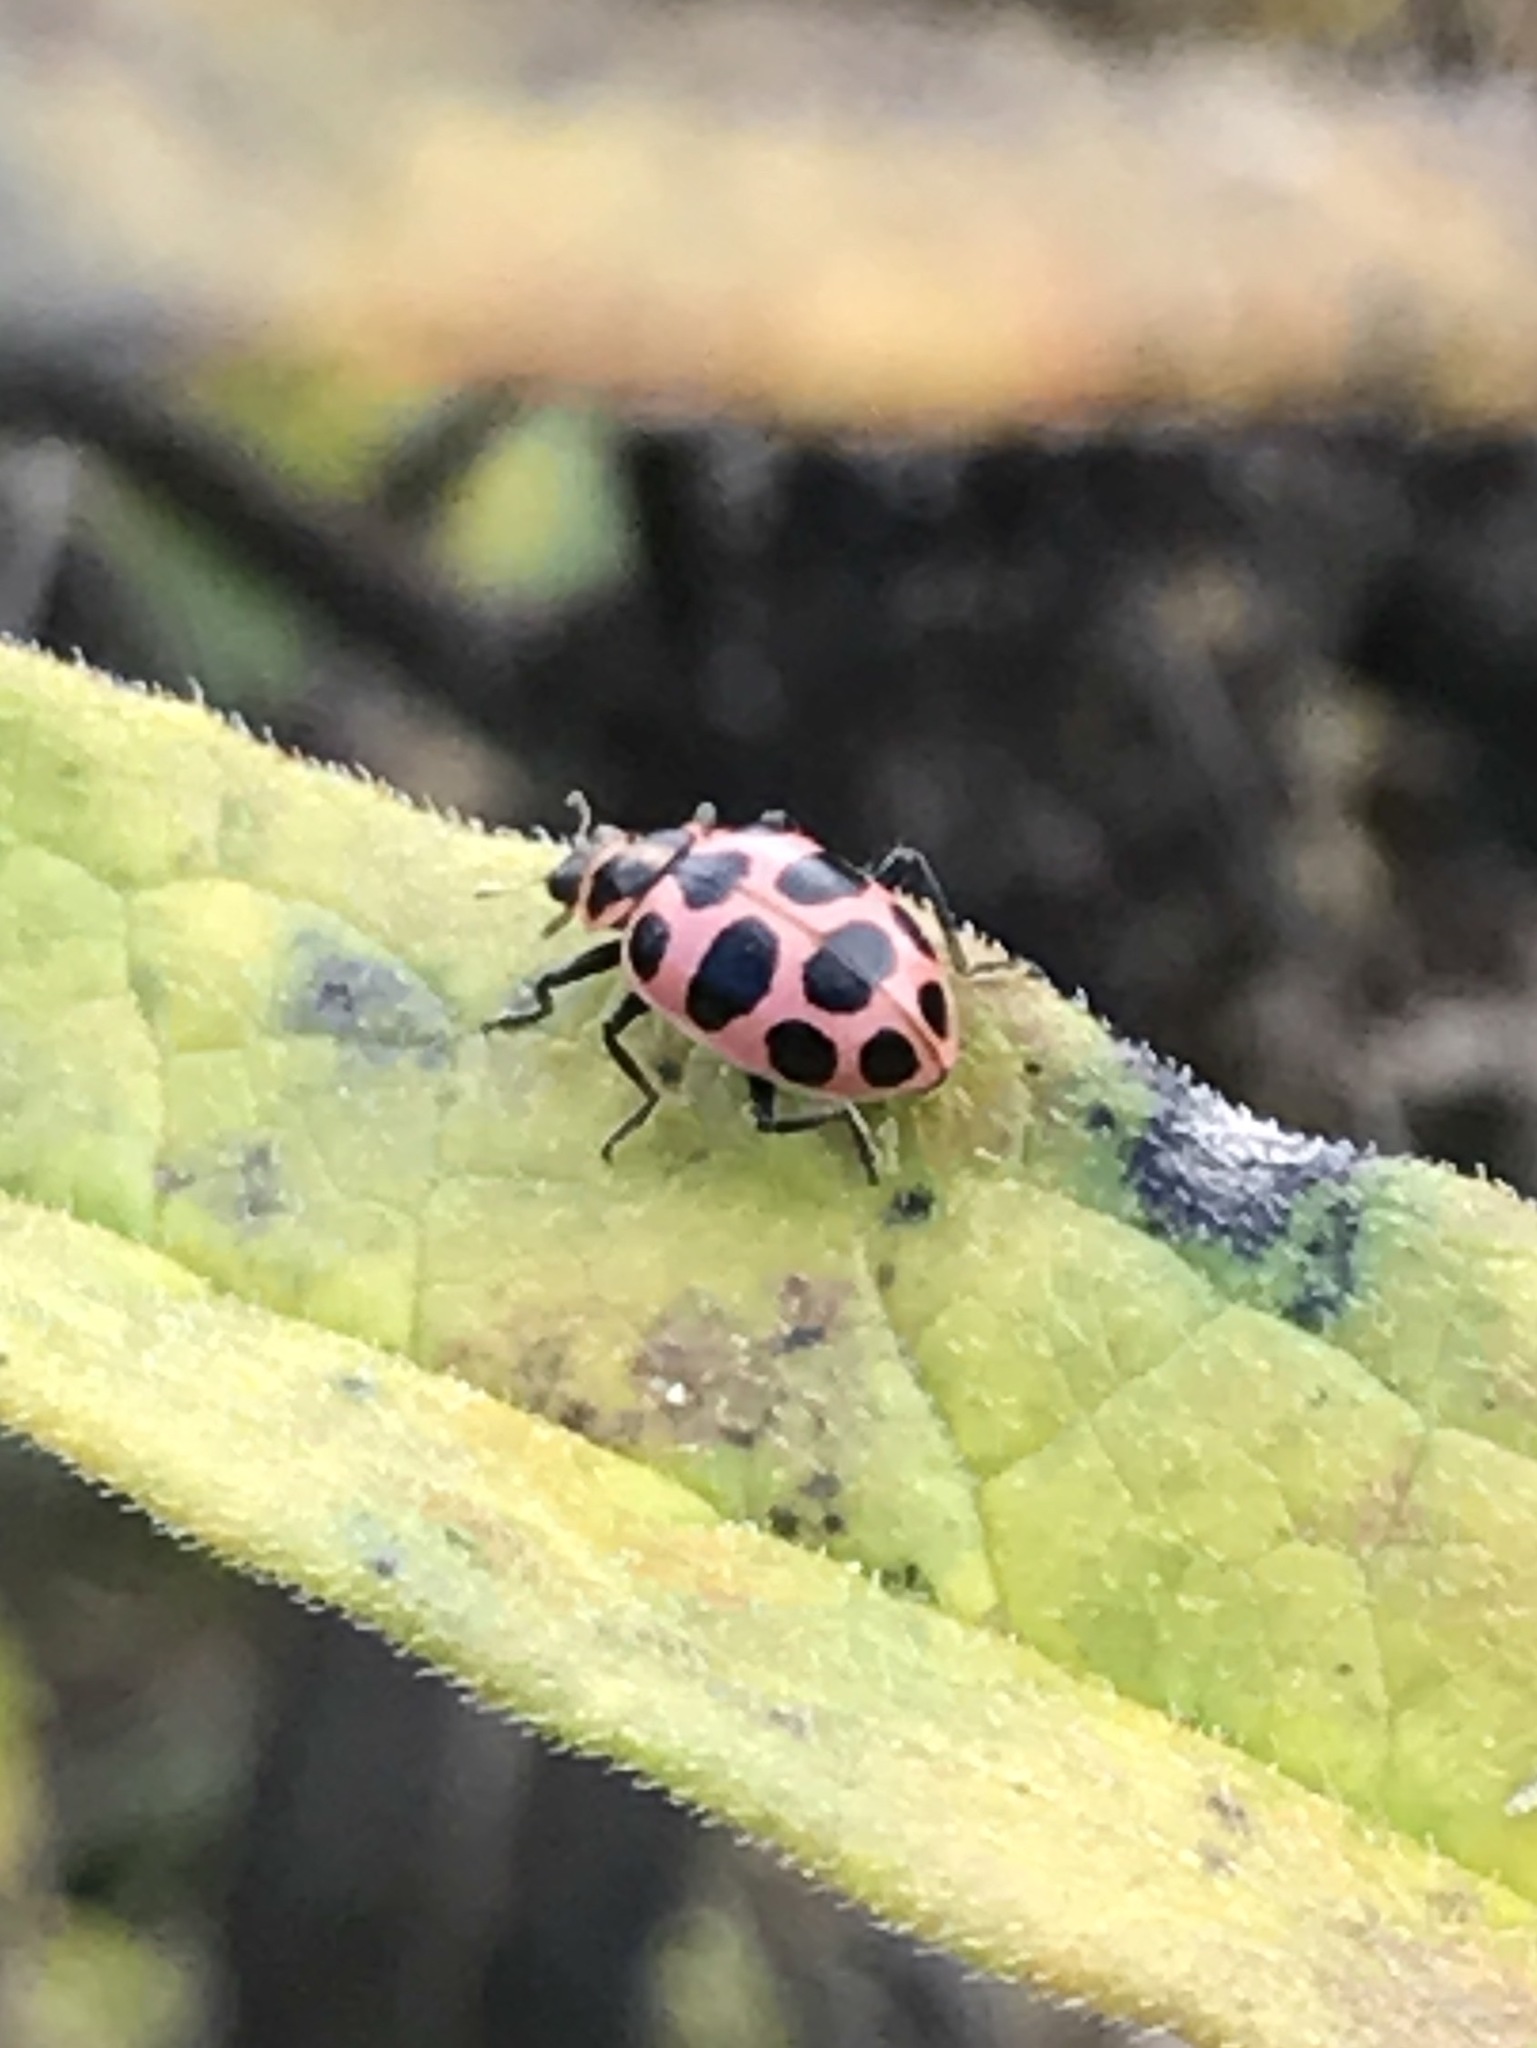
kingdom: Animalia
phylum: Arthropoda
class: Insecta
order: Coleoptera
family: Coccinellidae
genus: Coleomegilla
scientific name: Coleomegilla maculata
